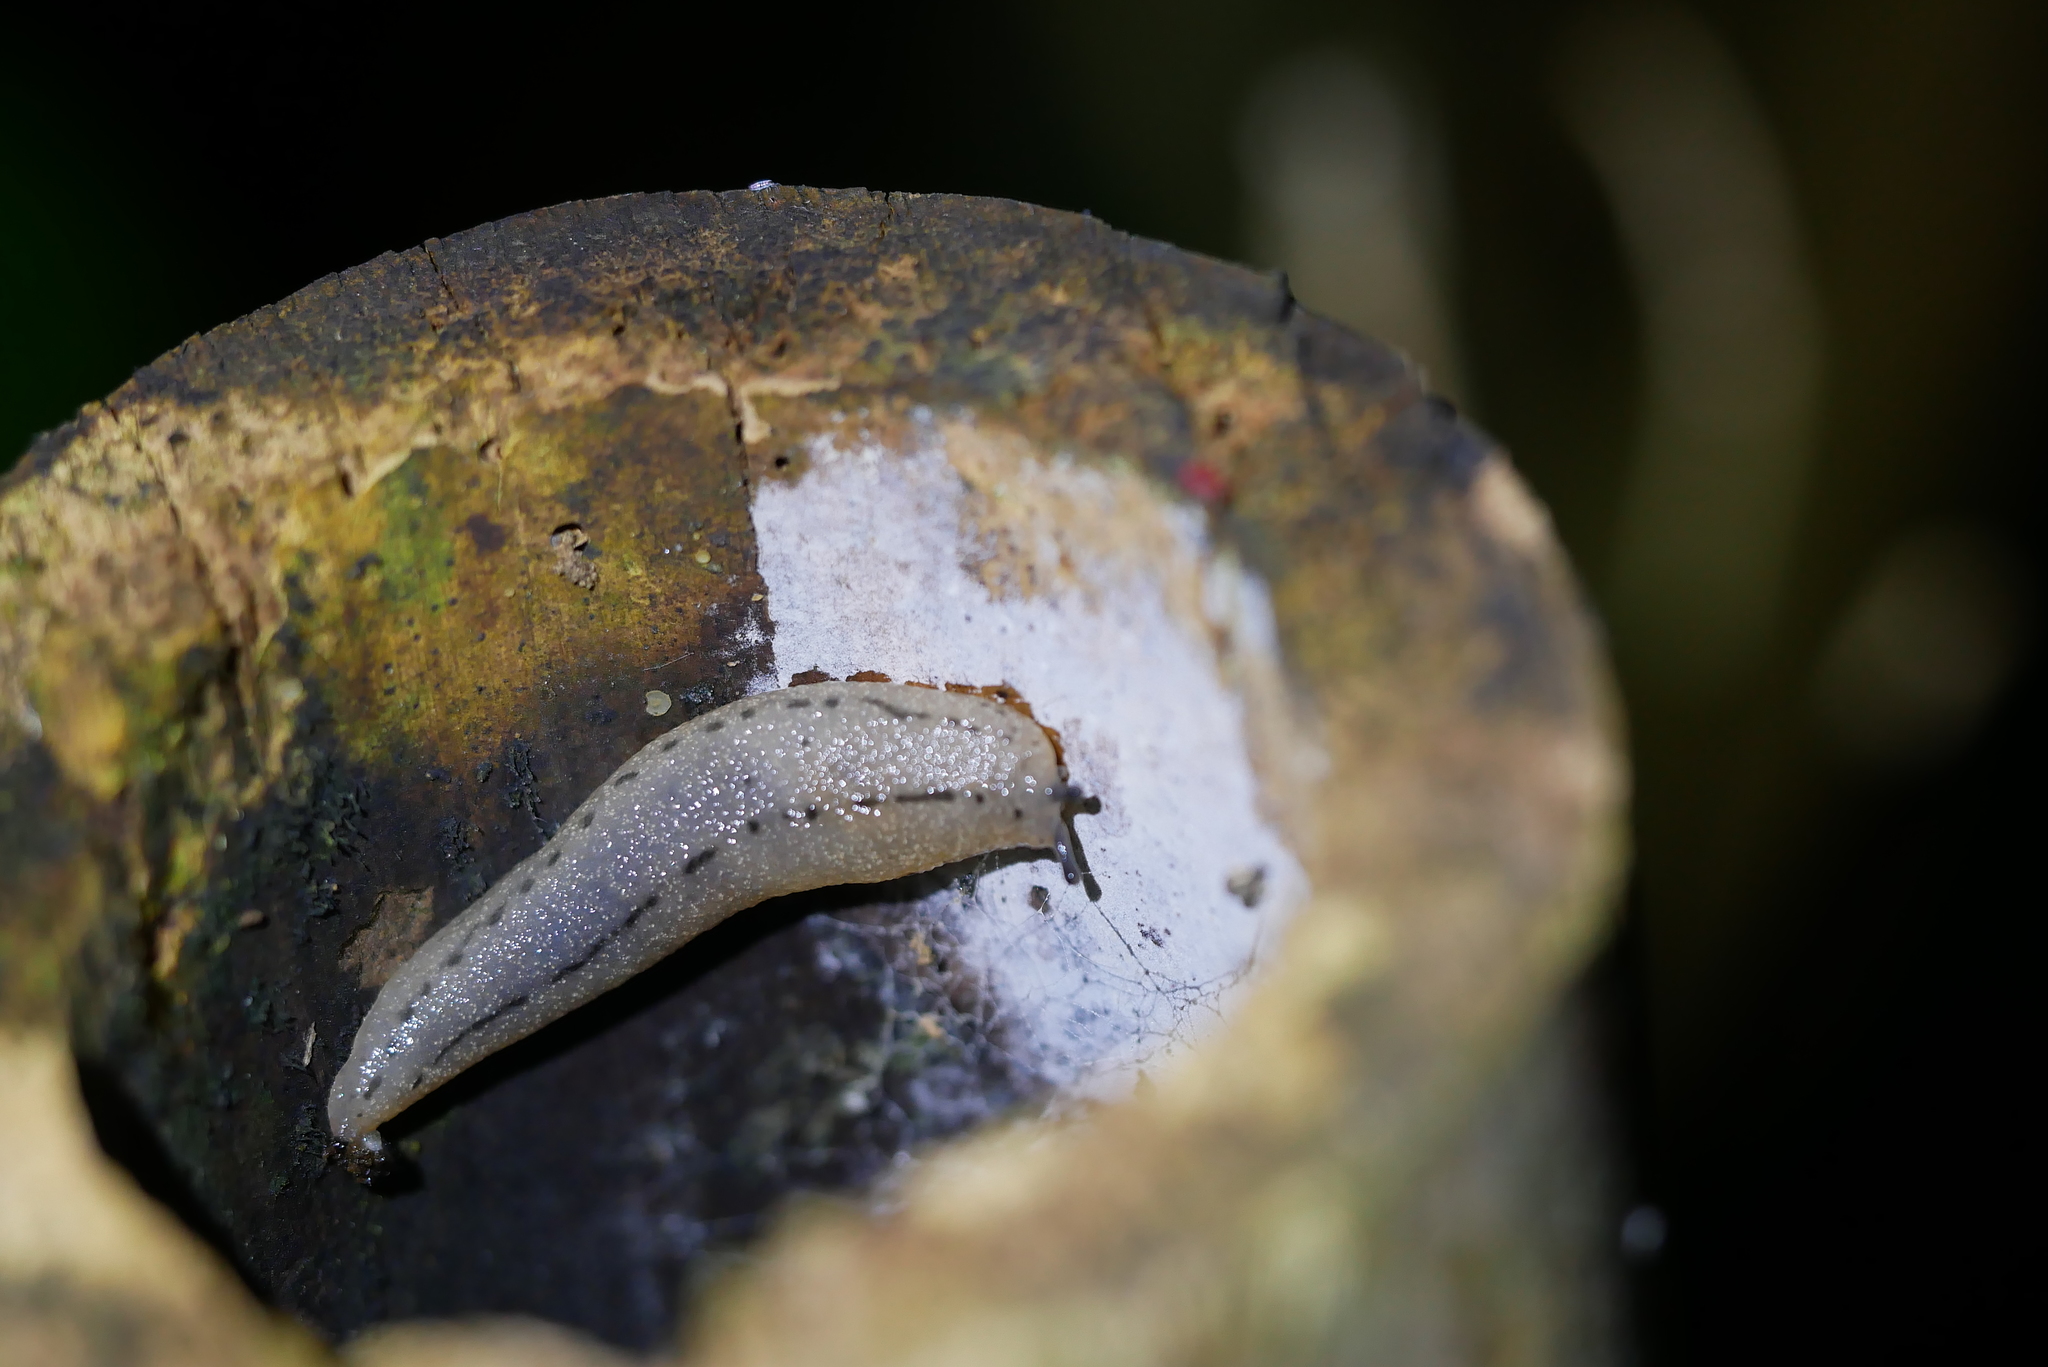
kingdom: Animalia
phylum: Mollusca
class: Gastropoda
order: Stylommatophora
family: Philomycidae
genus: Meghimatium
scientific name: Meghimatium bilineatum
